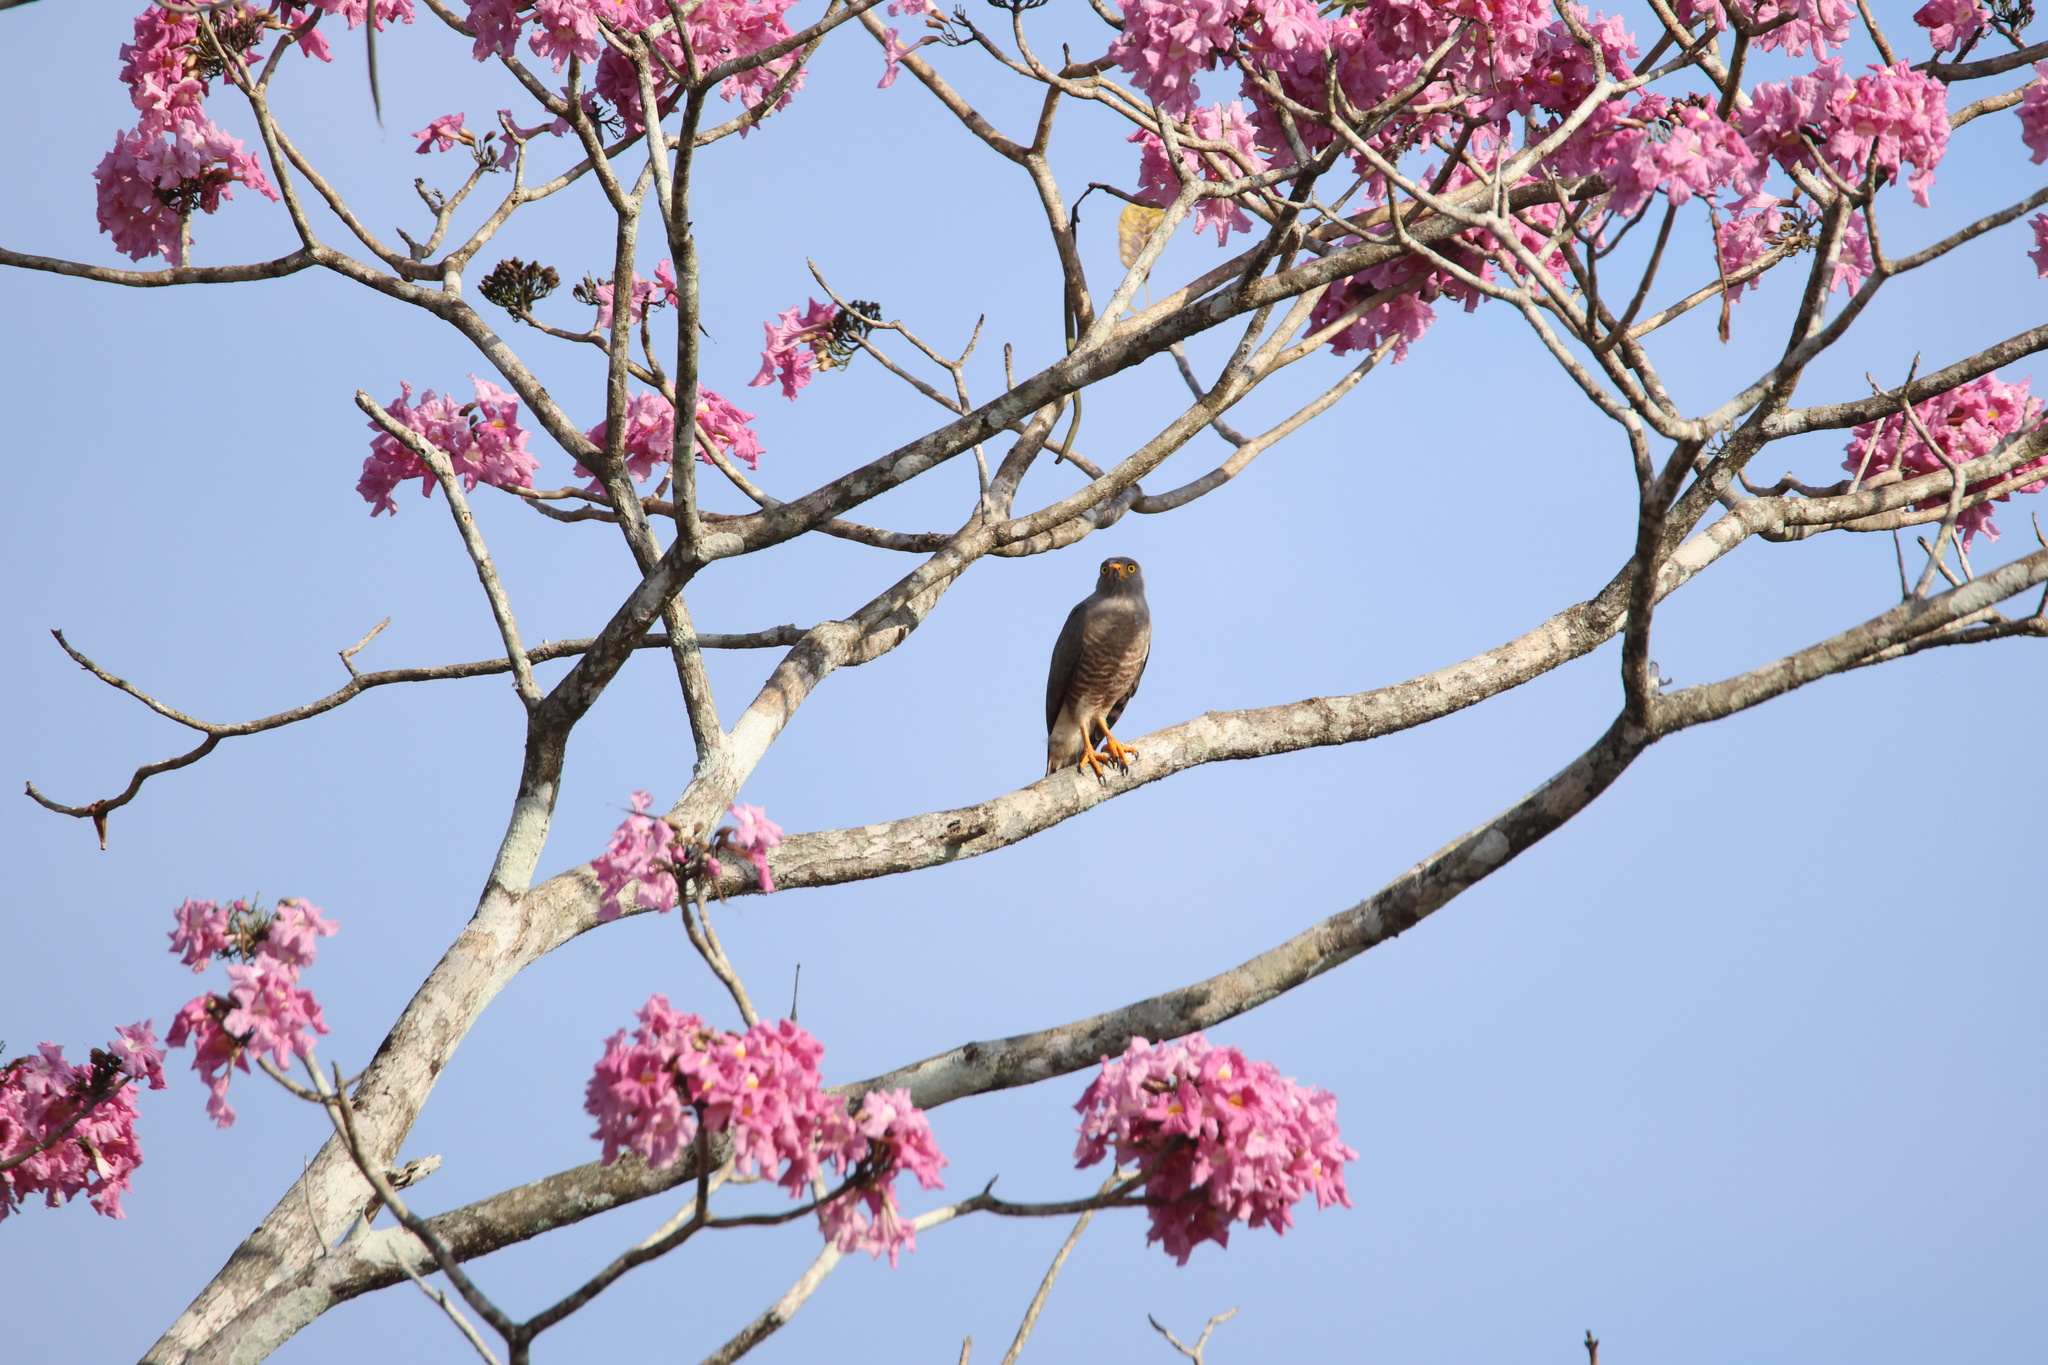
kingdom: Plantae
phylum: Tracheophyta
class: Magnoliopsida
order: Lamiales
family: Bignoniaceae
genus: Tabebuia
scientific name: Tabebuia rosea
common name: Pink poui
